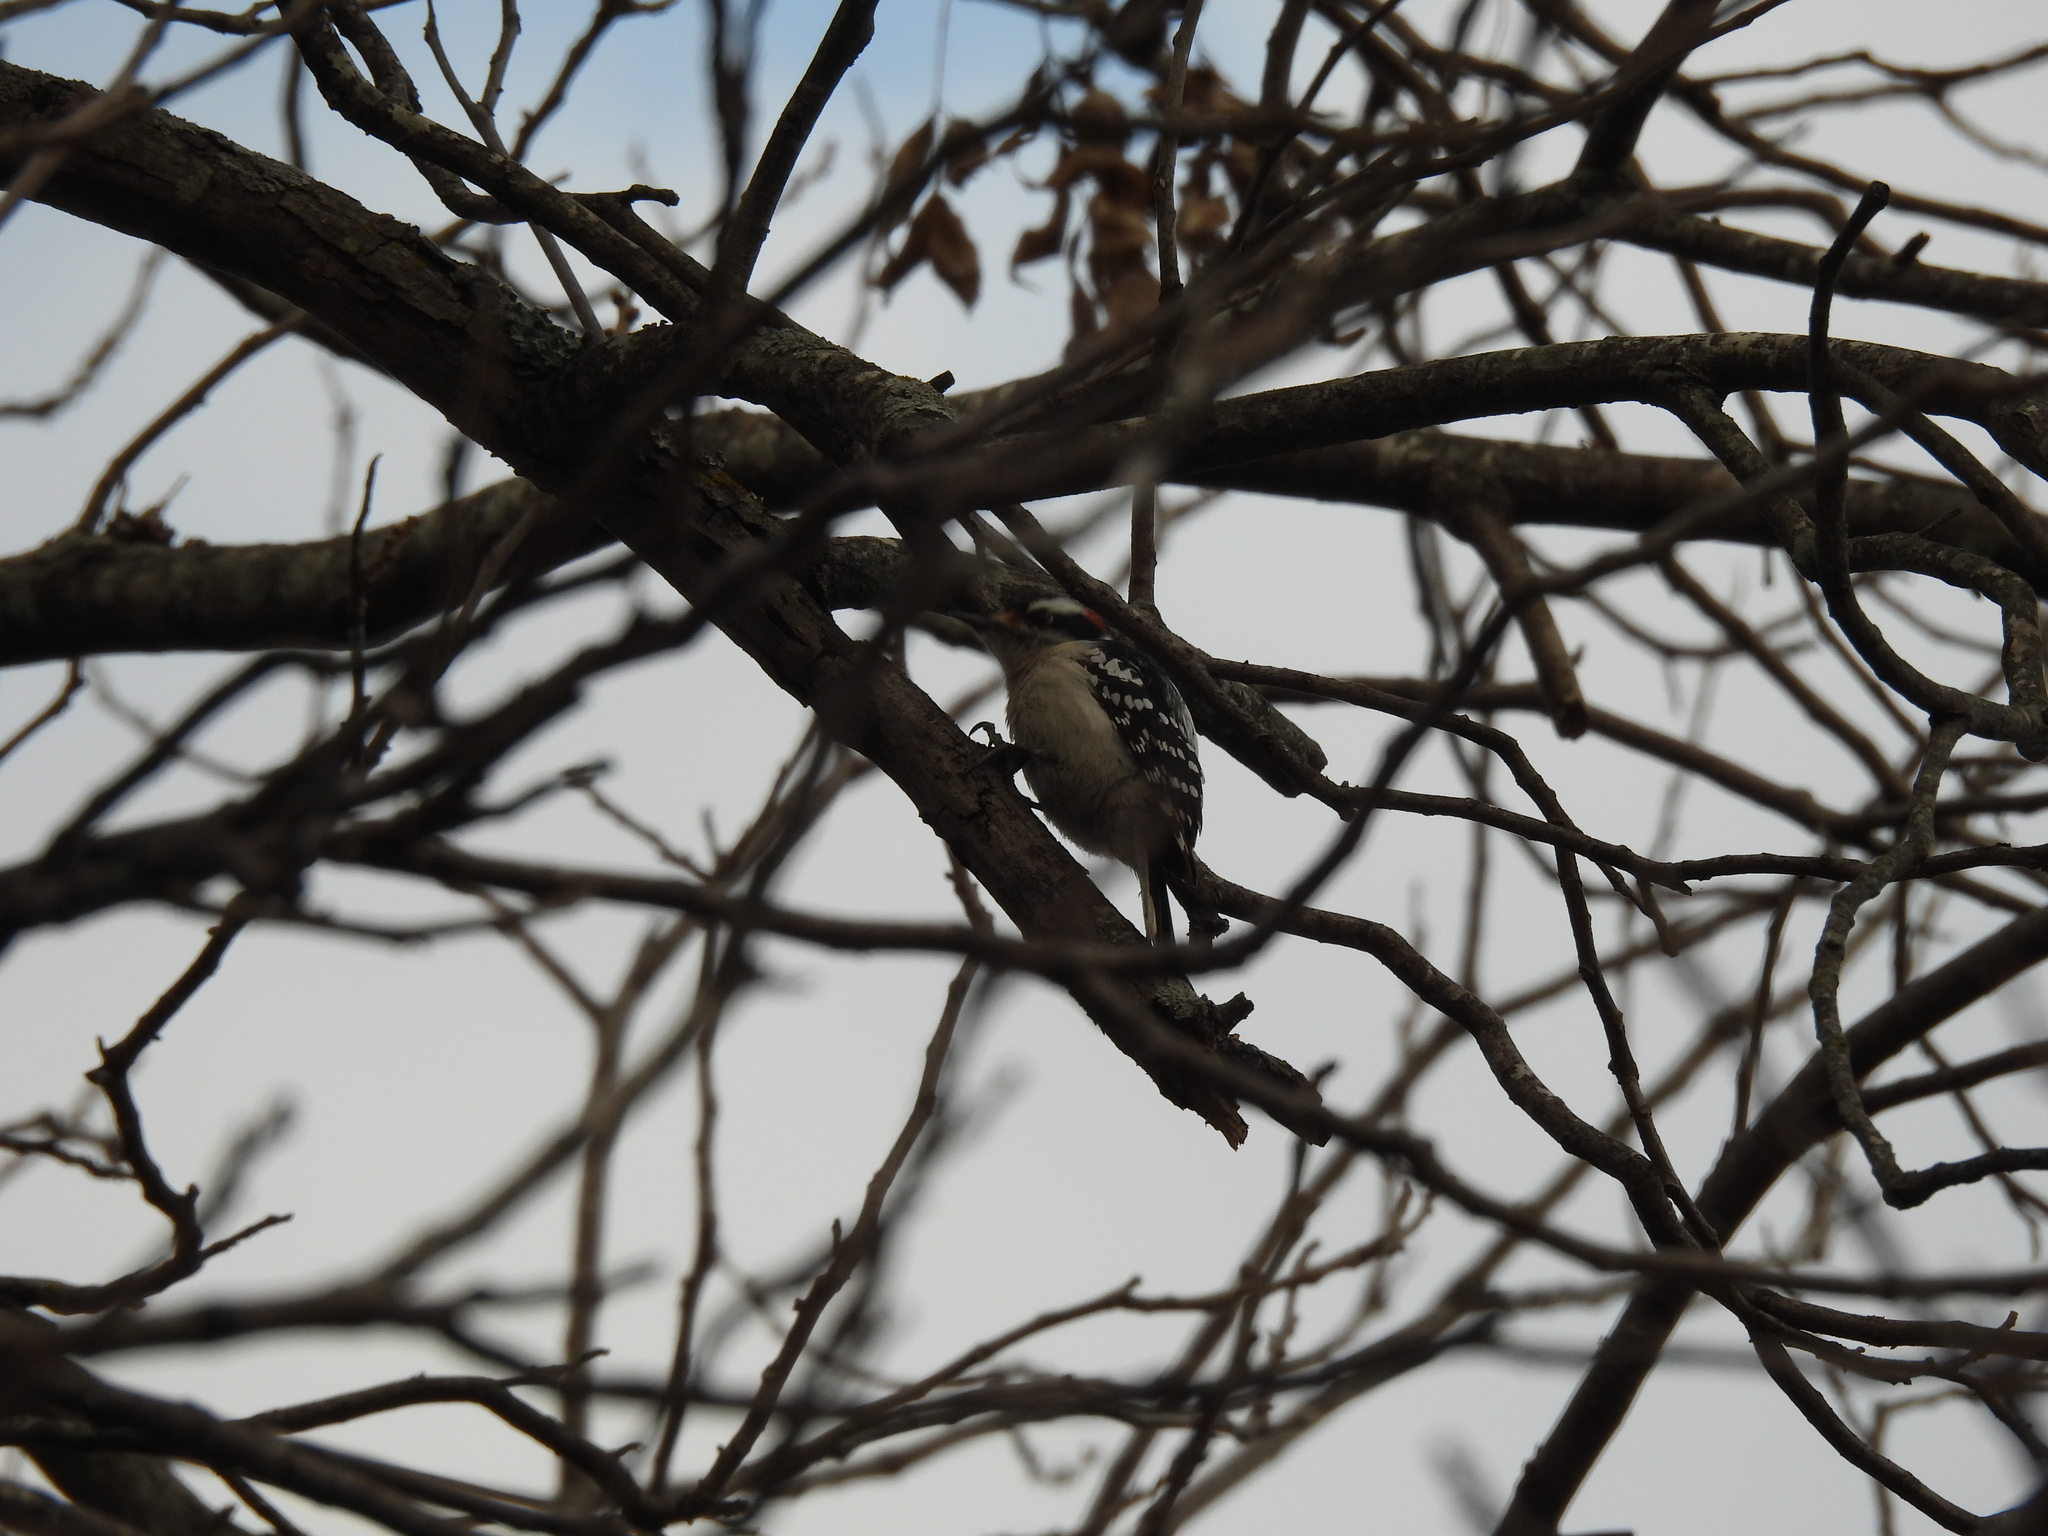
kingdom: Animalia
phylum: Chordata
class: Aves
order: Piciformes
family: Picidae
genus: Dryobates
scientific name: Dryobates pubescens
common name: Downy woodpecker
